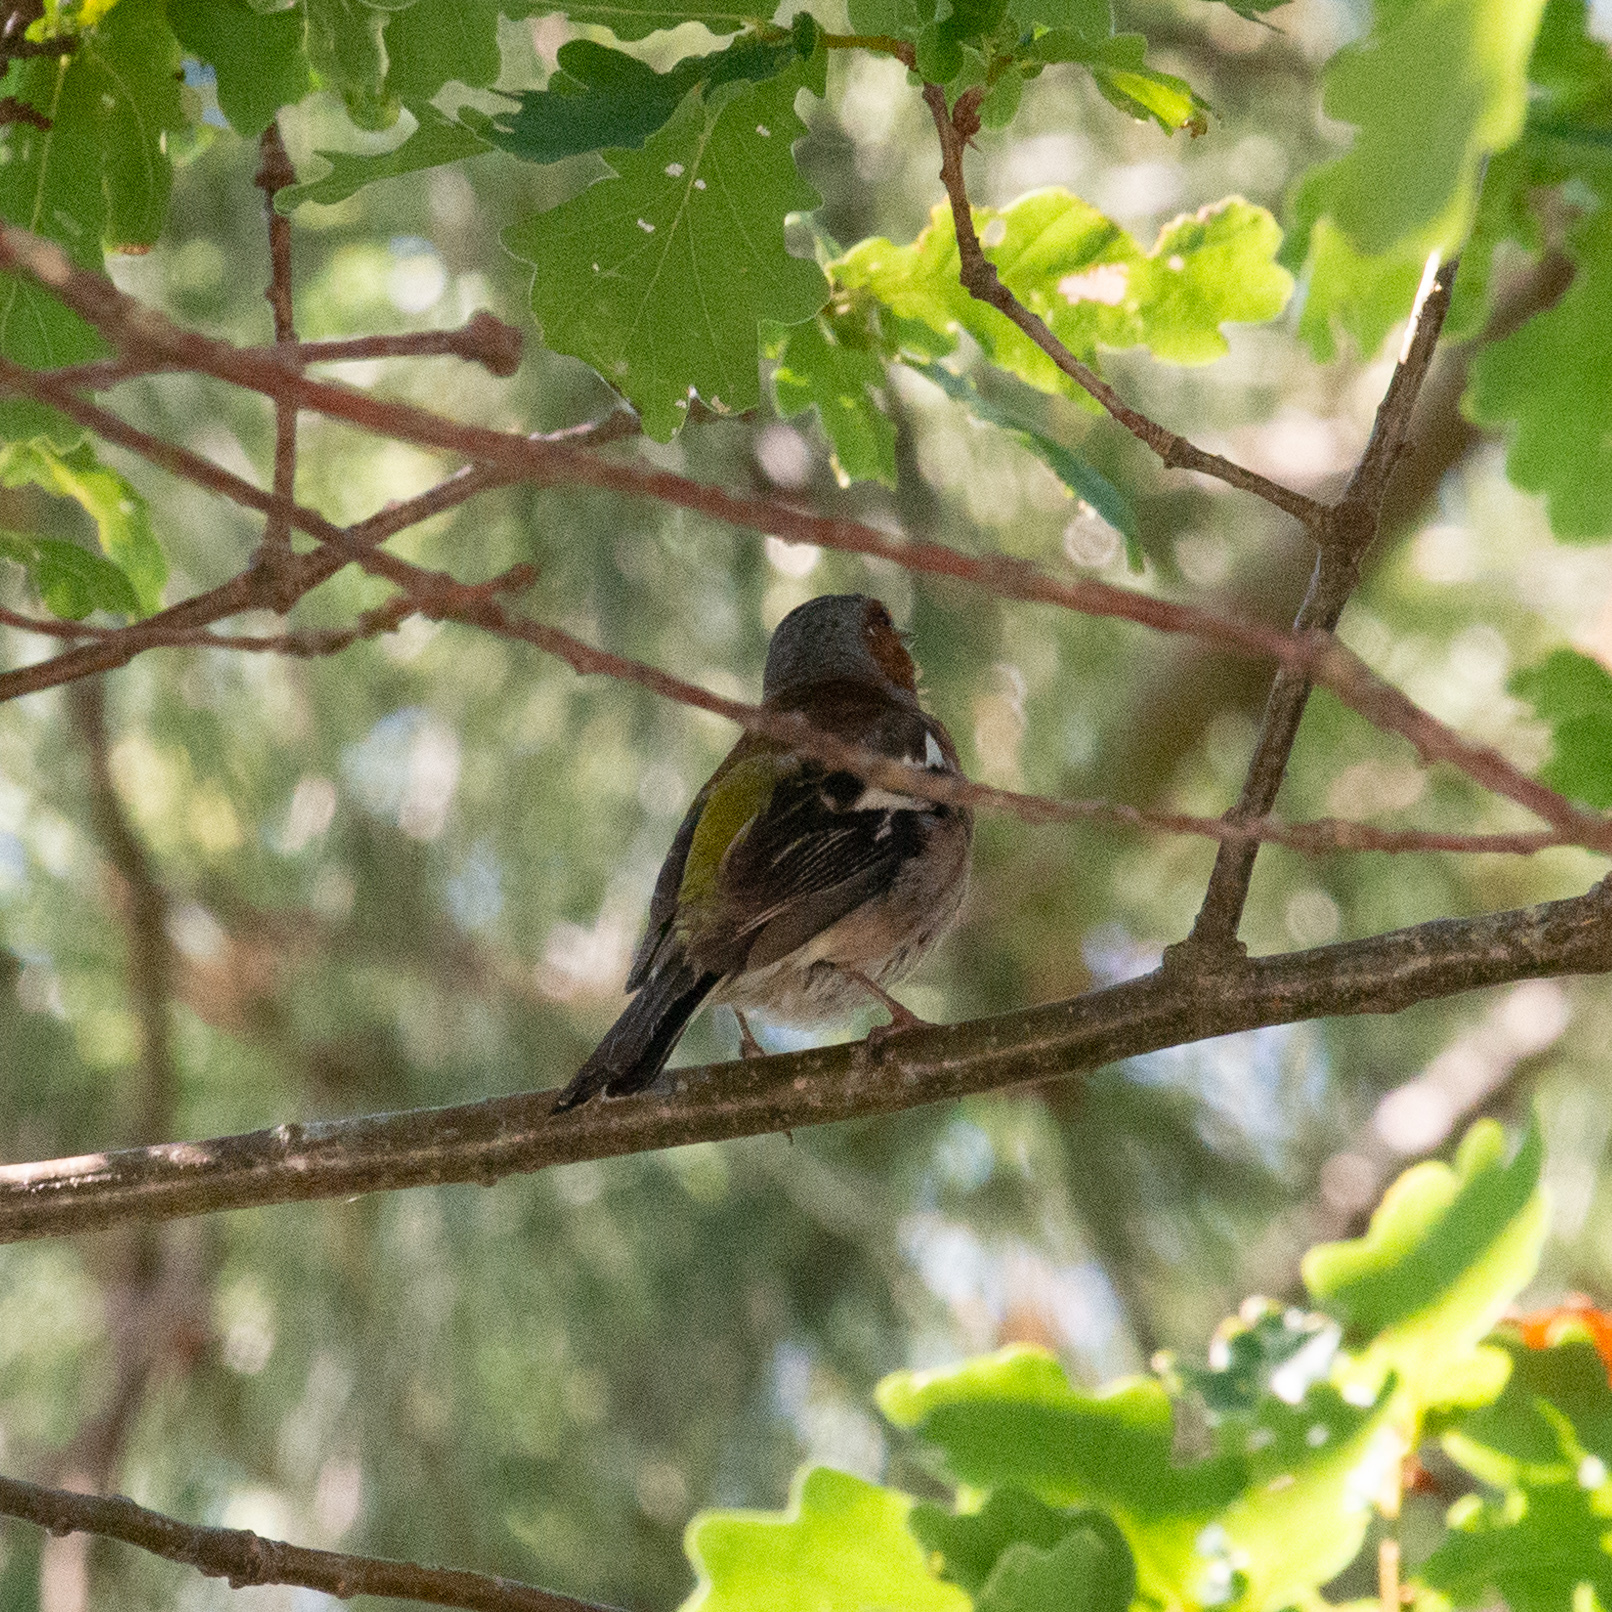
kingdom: Animalia
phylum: Chordata
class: Aves
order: Passeriformes
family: Fringillidae
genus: Fringilla
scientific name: Fringilla coelebs
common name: Common chaffinch
